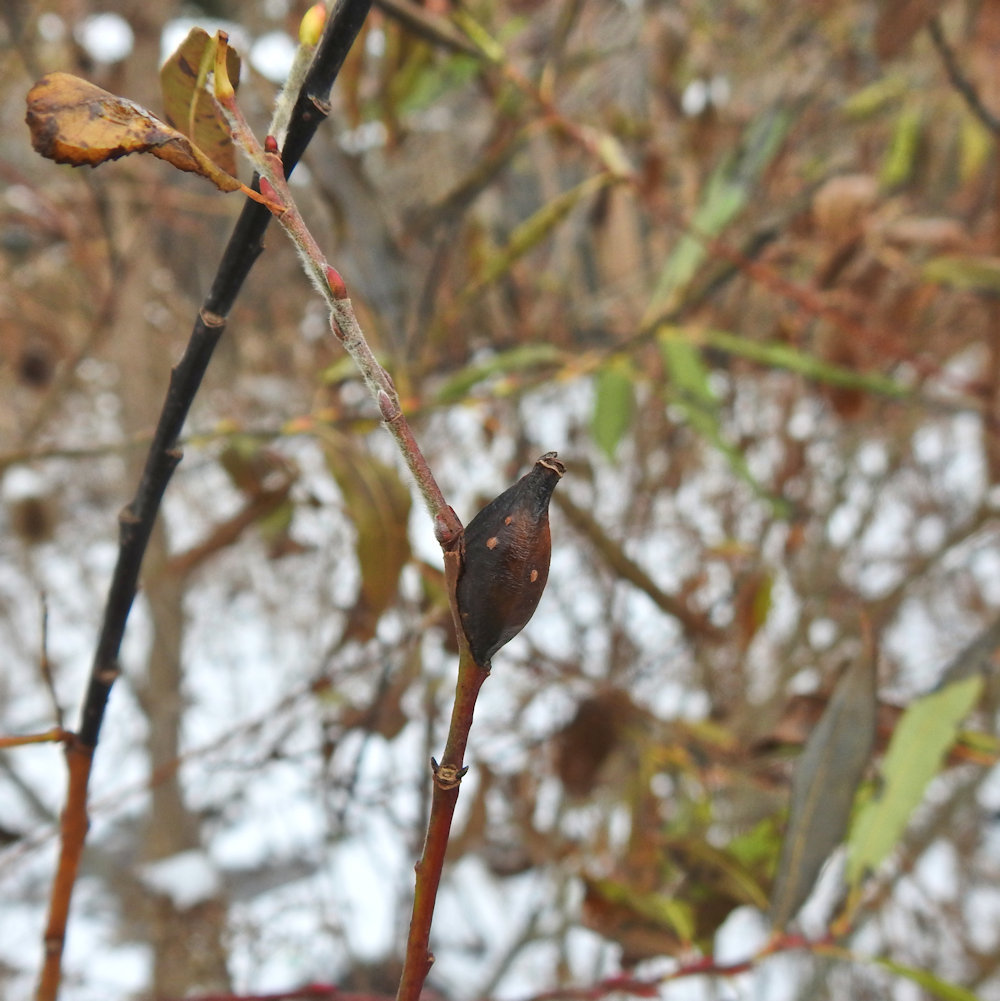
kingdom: Animalia
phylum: Arthropoda
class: Insecta
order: Diptera
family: Cecidomyiidae
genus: Thecodiplosis
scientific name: Thecodiplosis pinirigidae
